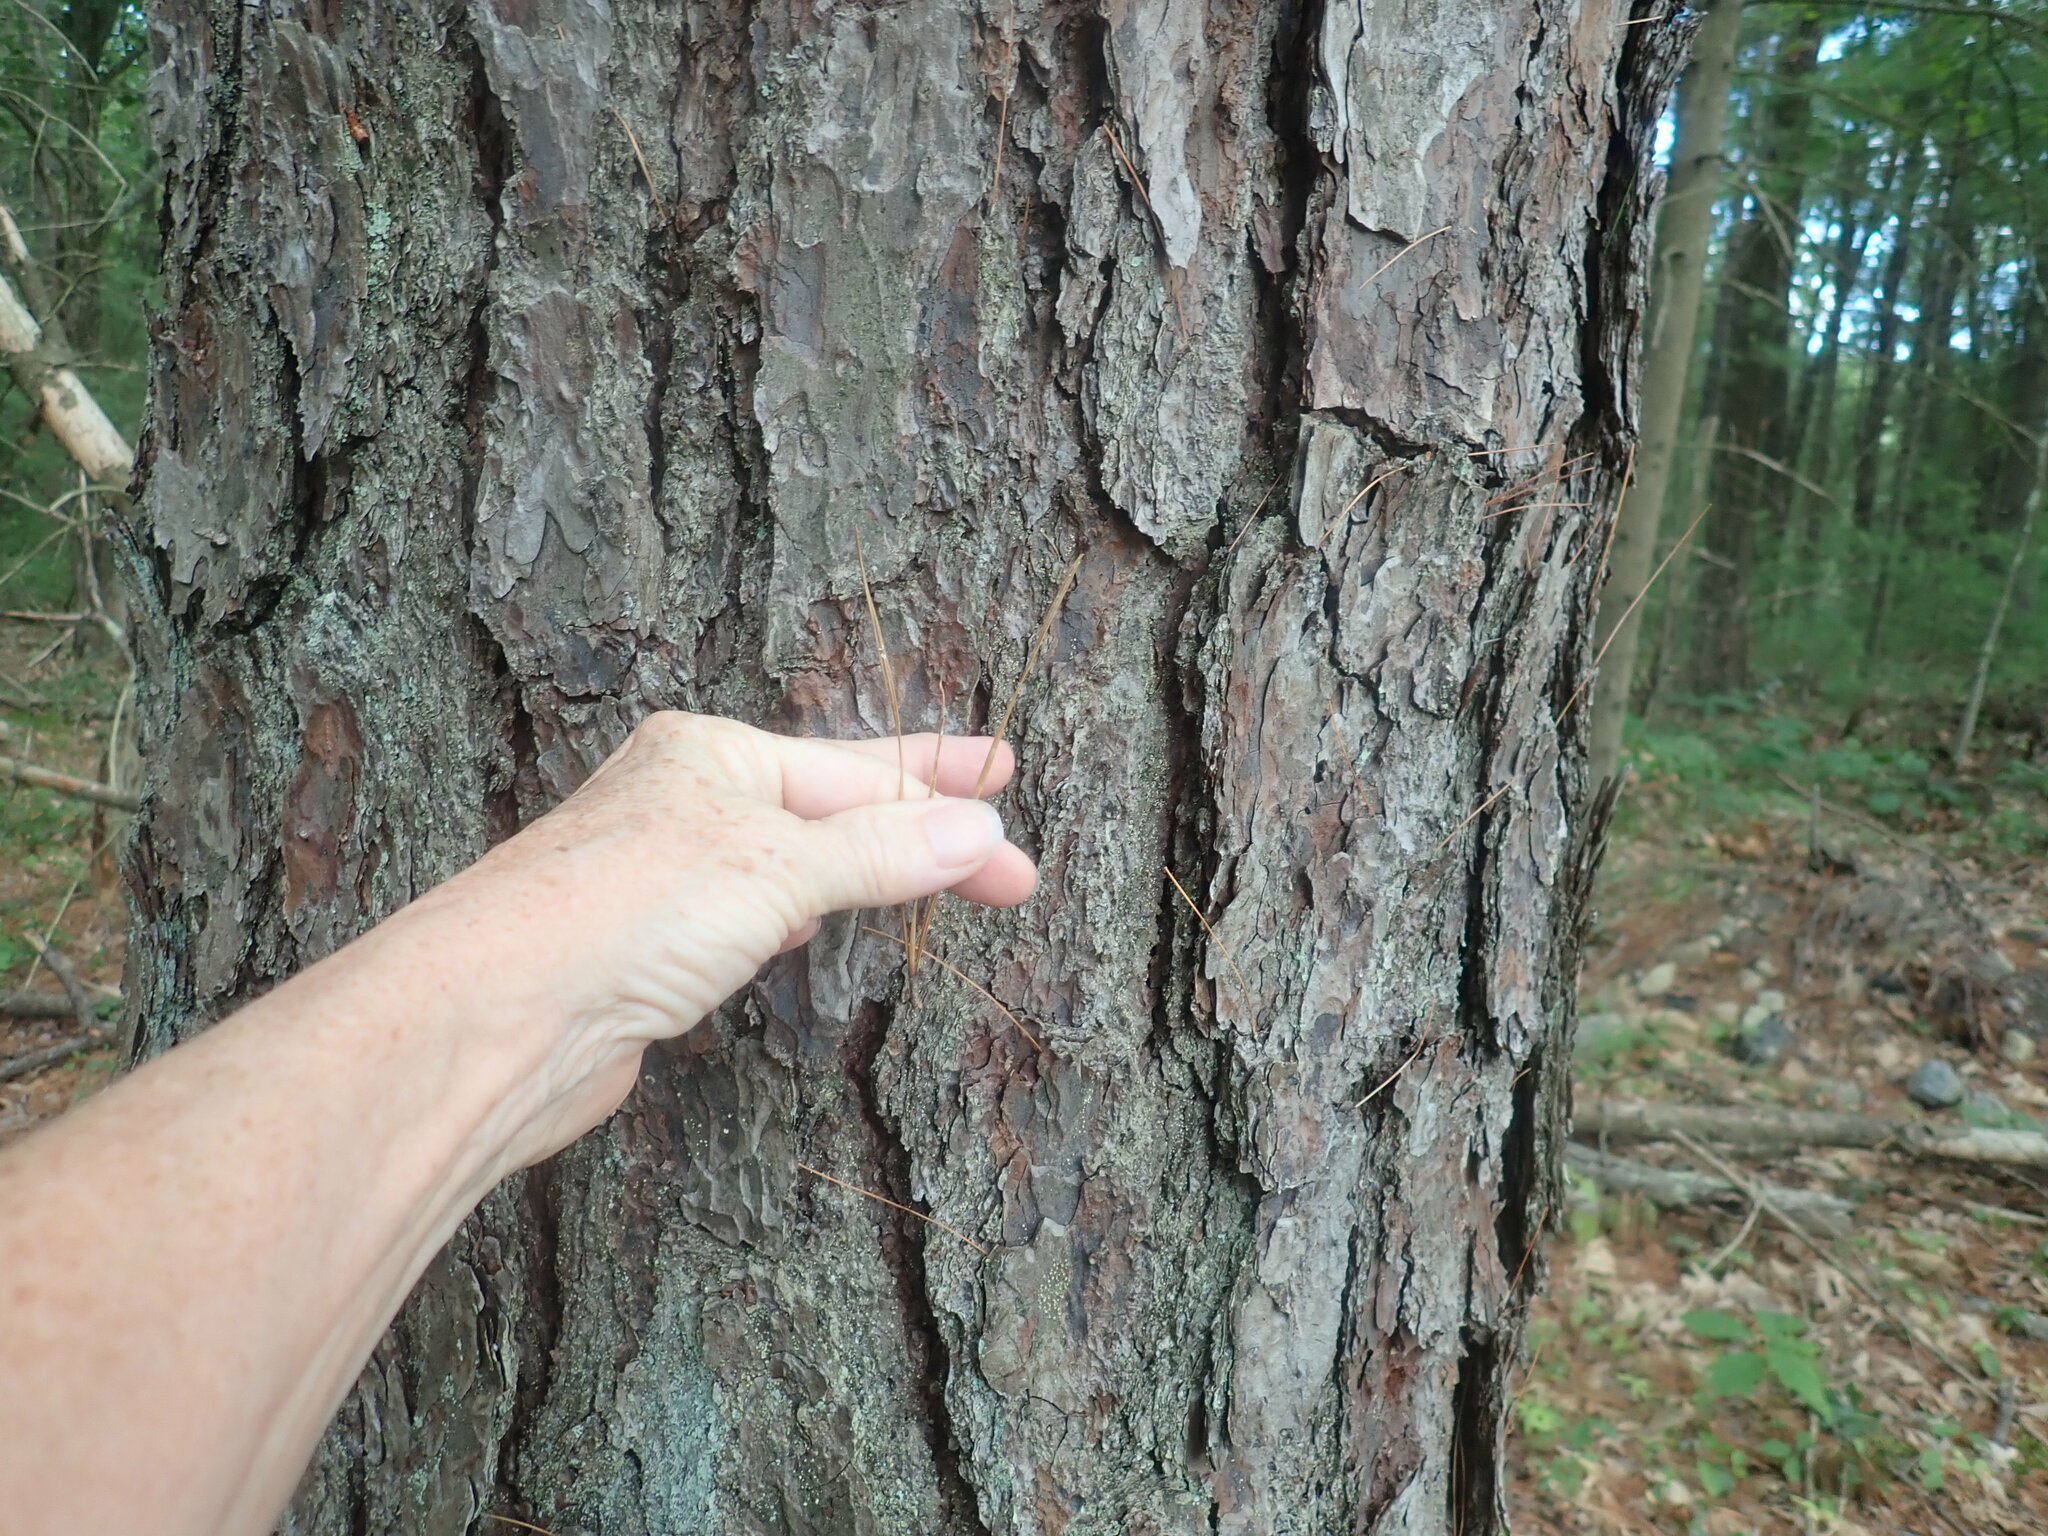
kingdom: Plantae
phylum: Tracheophyta
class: Pinopsida
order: Pinales
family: Pinaceae
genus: Pinus
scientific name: Pinus rigida
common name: Pitch pine
